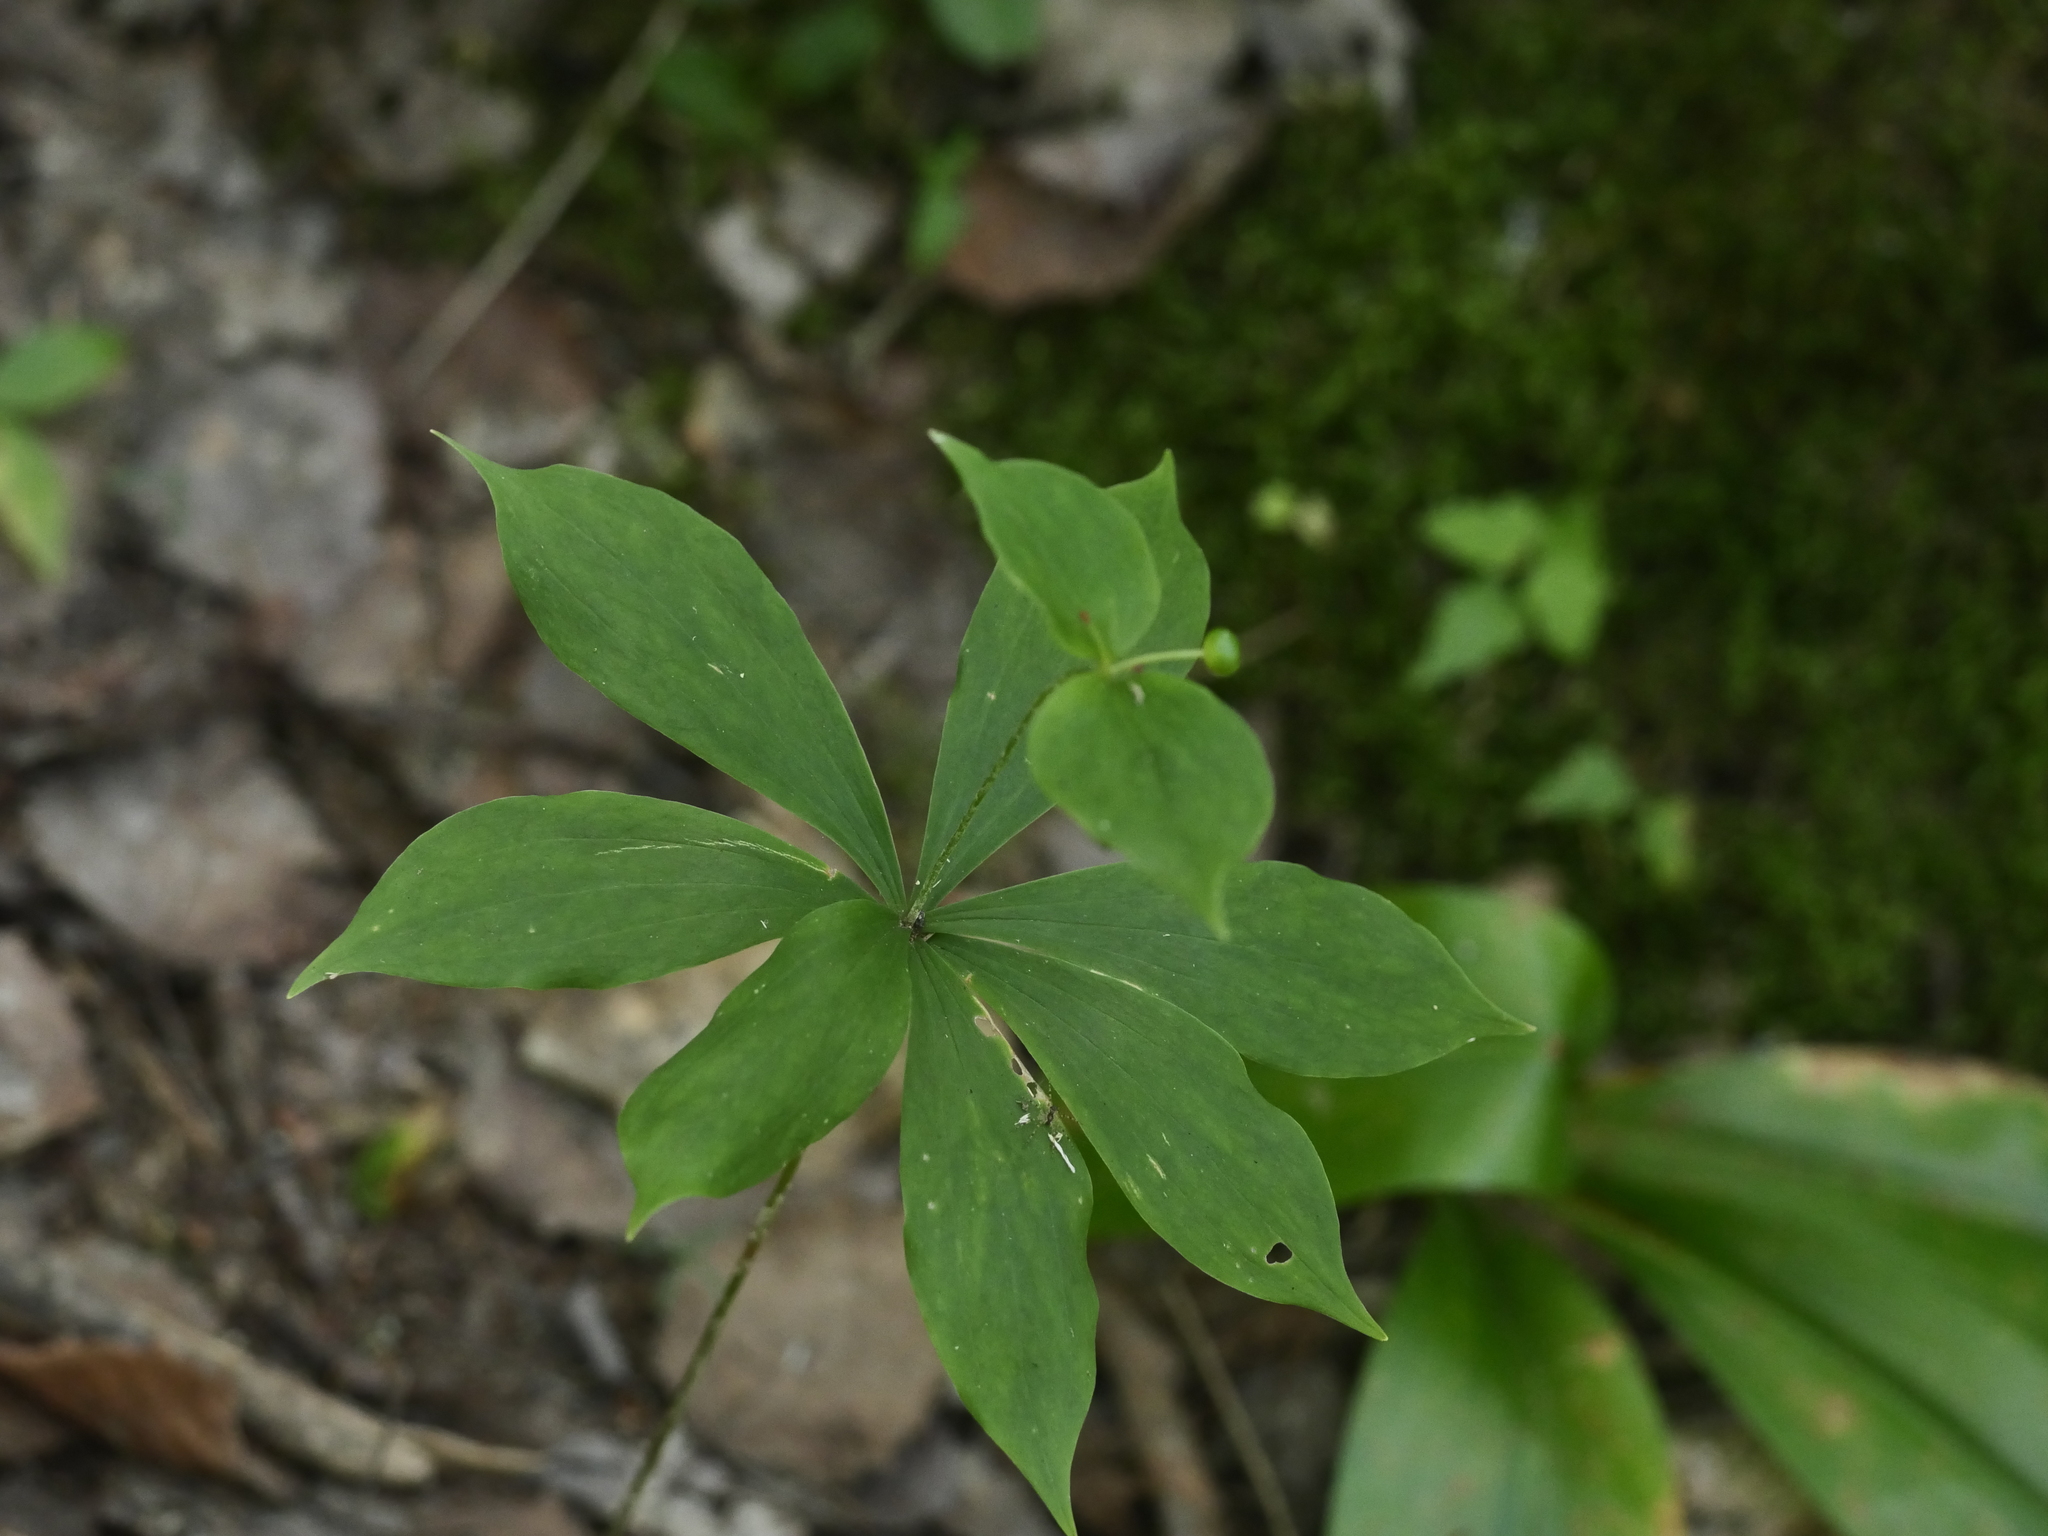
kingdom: Plantae
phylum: Tracheophyta
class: Liliopsida
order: Liliales
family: Liliaceae
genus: Medeola
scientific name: Medeola virginiana
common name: Indian cucumber-root
